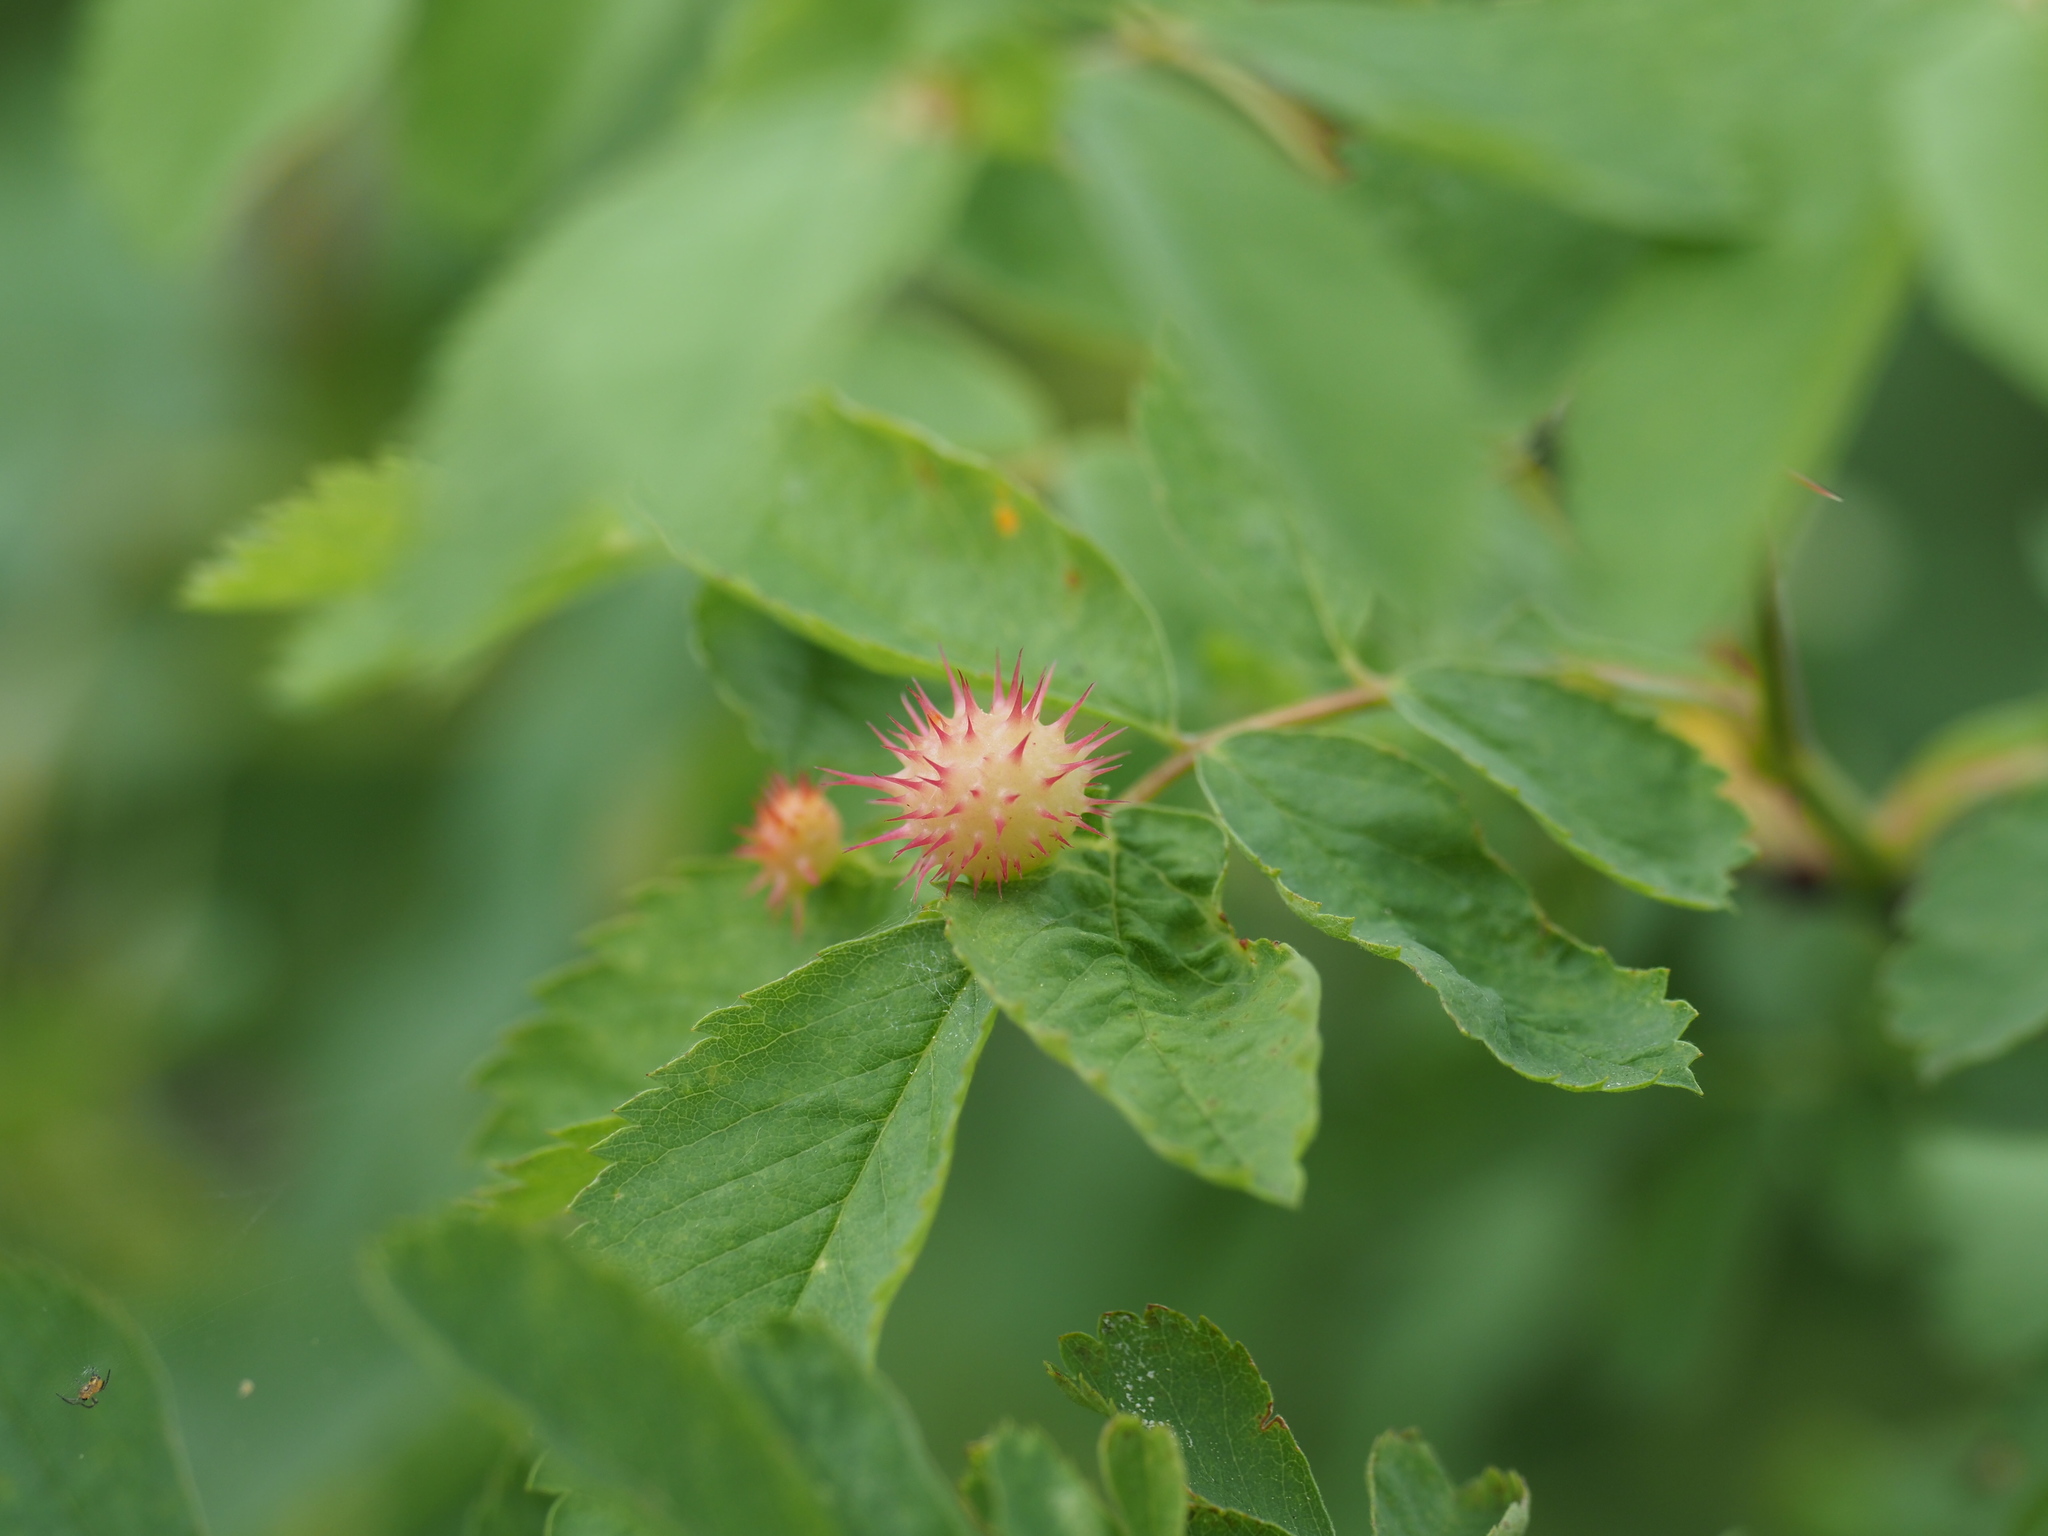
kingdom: Animalia
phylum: Arthropoda
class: Insecta
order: Hymenoptera
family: Cynipidae
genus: Diplolepis
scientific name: Diplolepis polita
